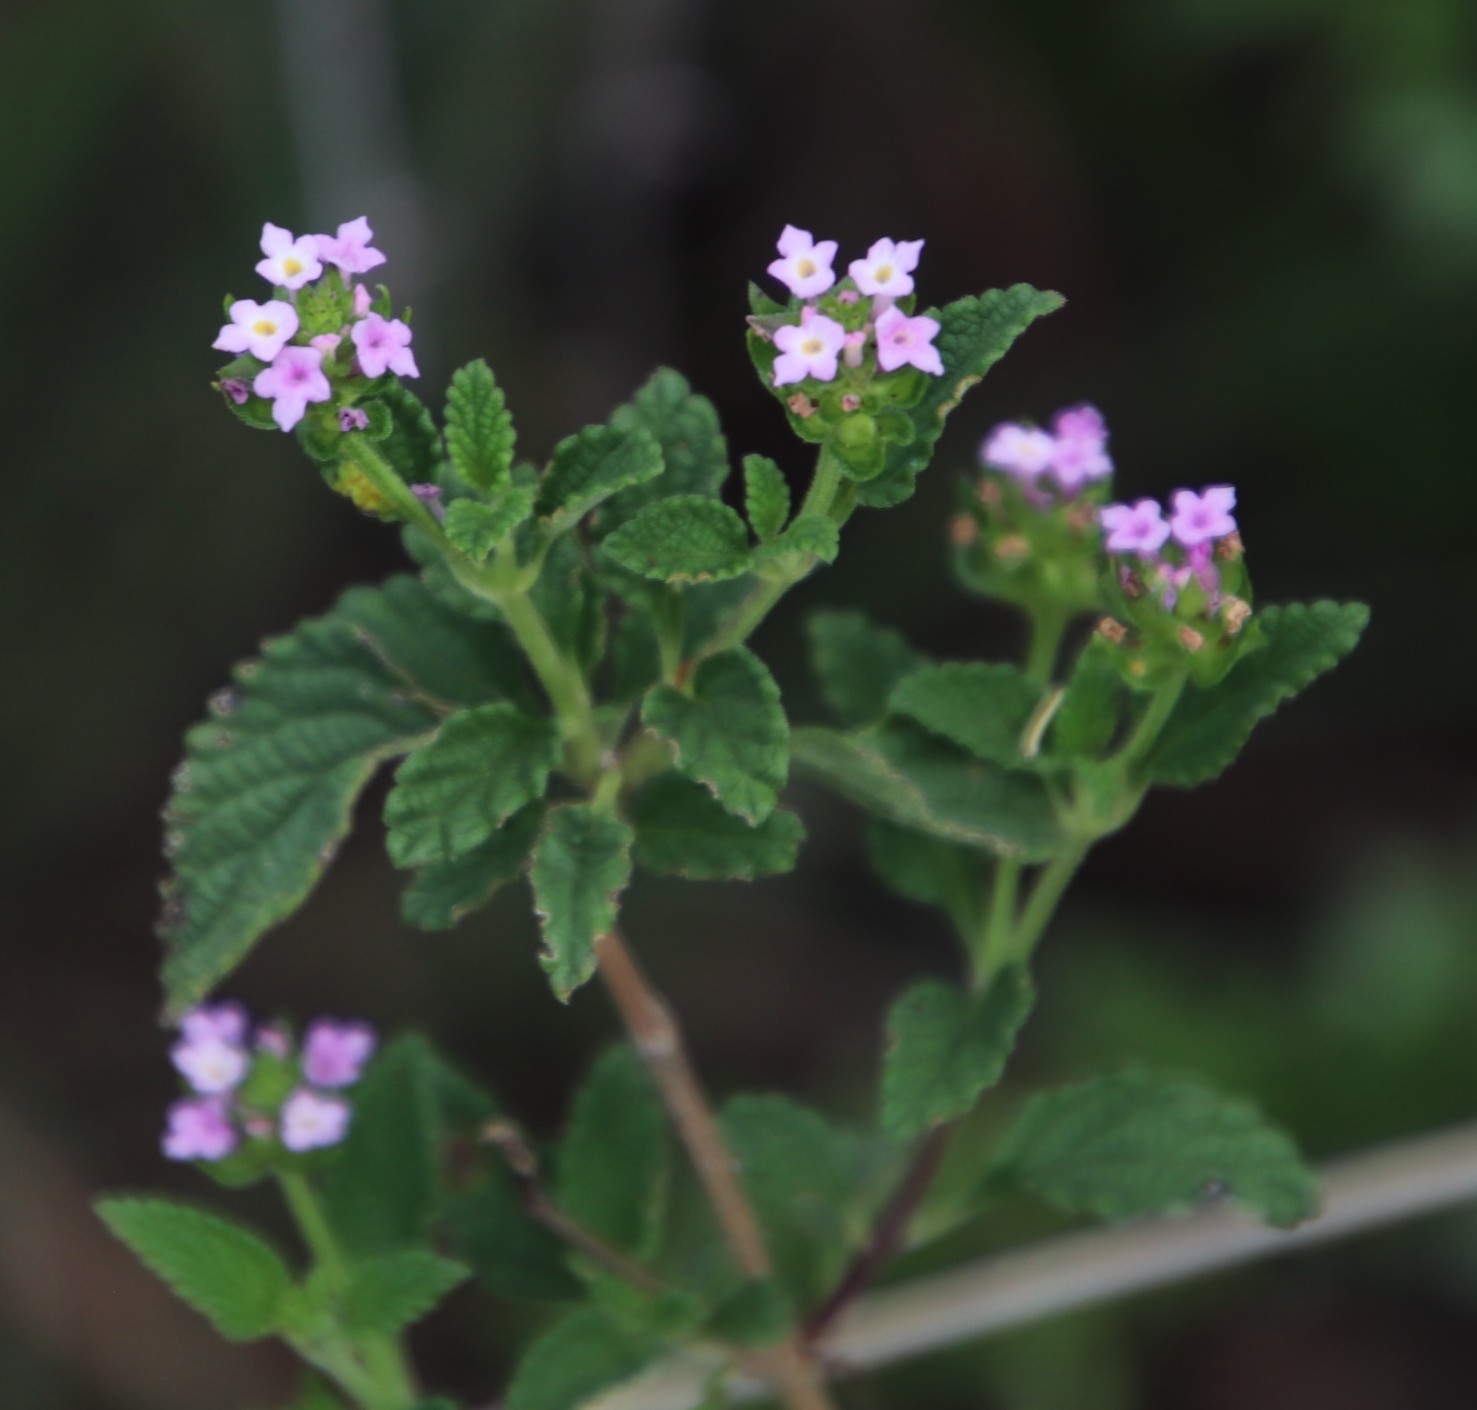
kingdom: Plantae
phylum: Tracheophyta
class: Magnoliopsida
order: Lamiales
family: Verbenaceae
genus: Lantana
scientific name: Lantana rugosa
